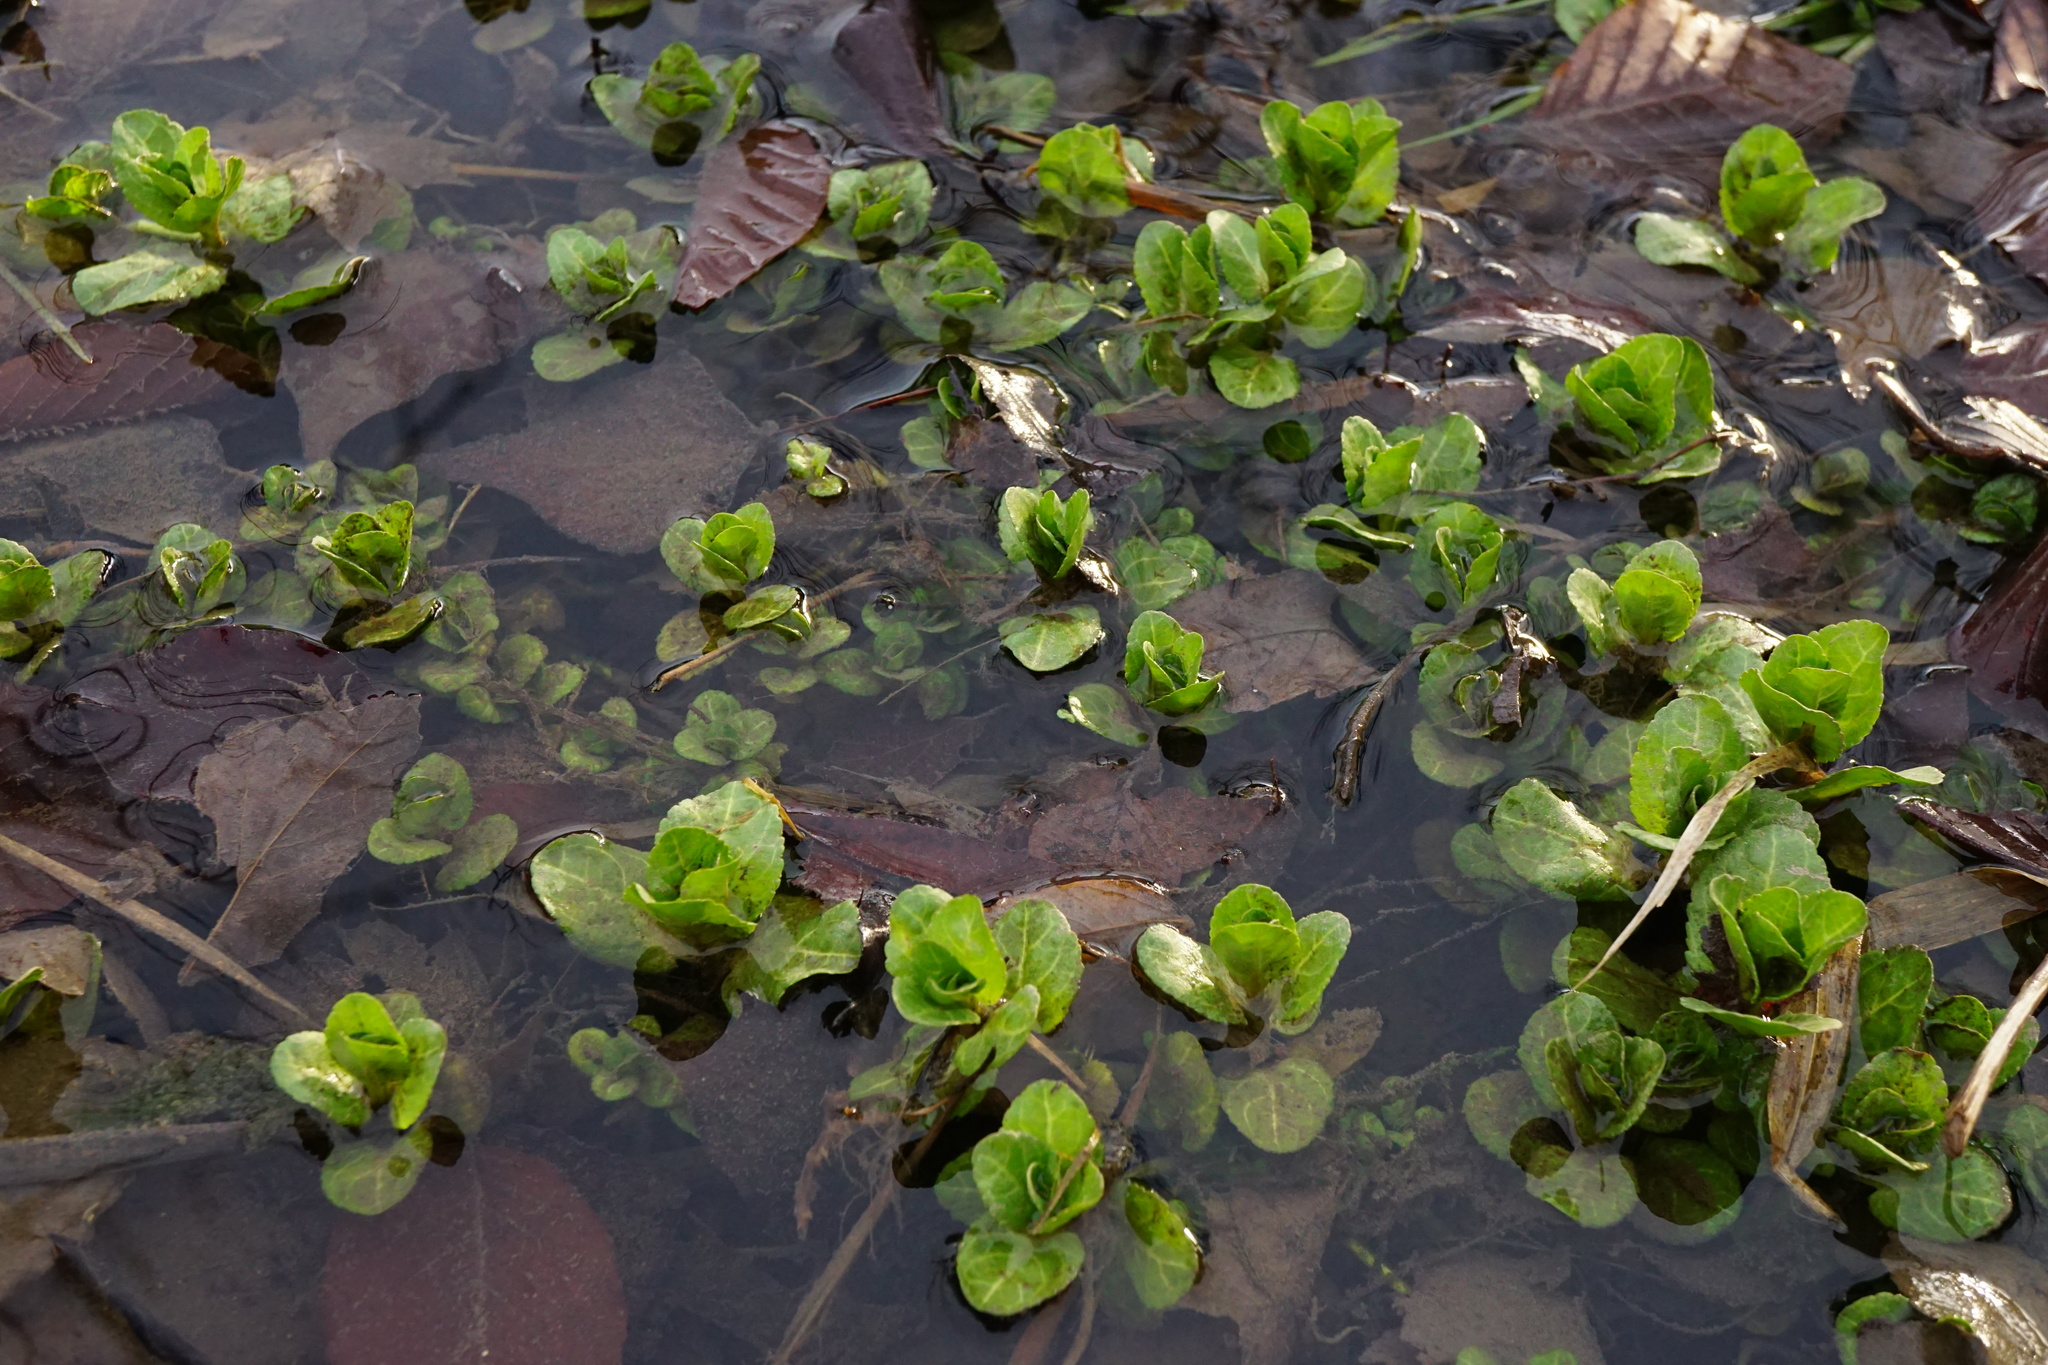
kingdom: Plantae
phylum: Tracheophyta
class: Magnoliopsida
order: Lamiales
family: Plantaginaceae
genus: Veronica
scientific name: Veronica beccabunga
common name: Brooklime
